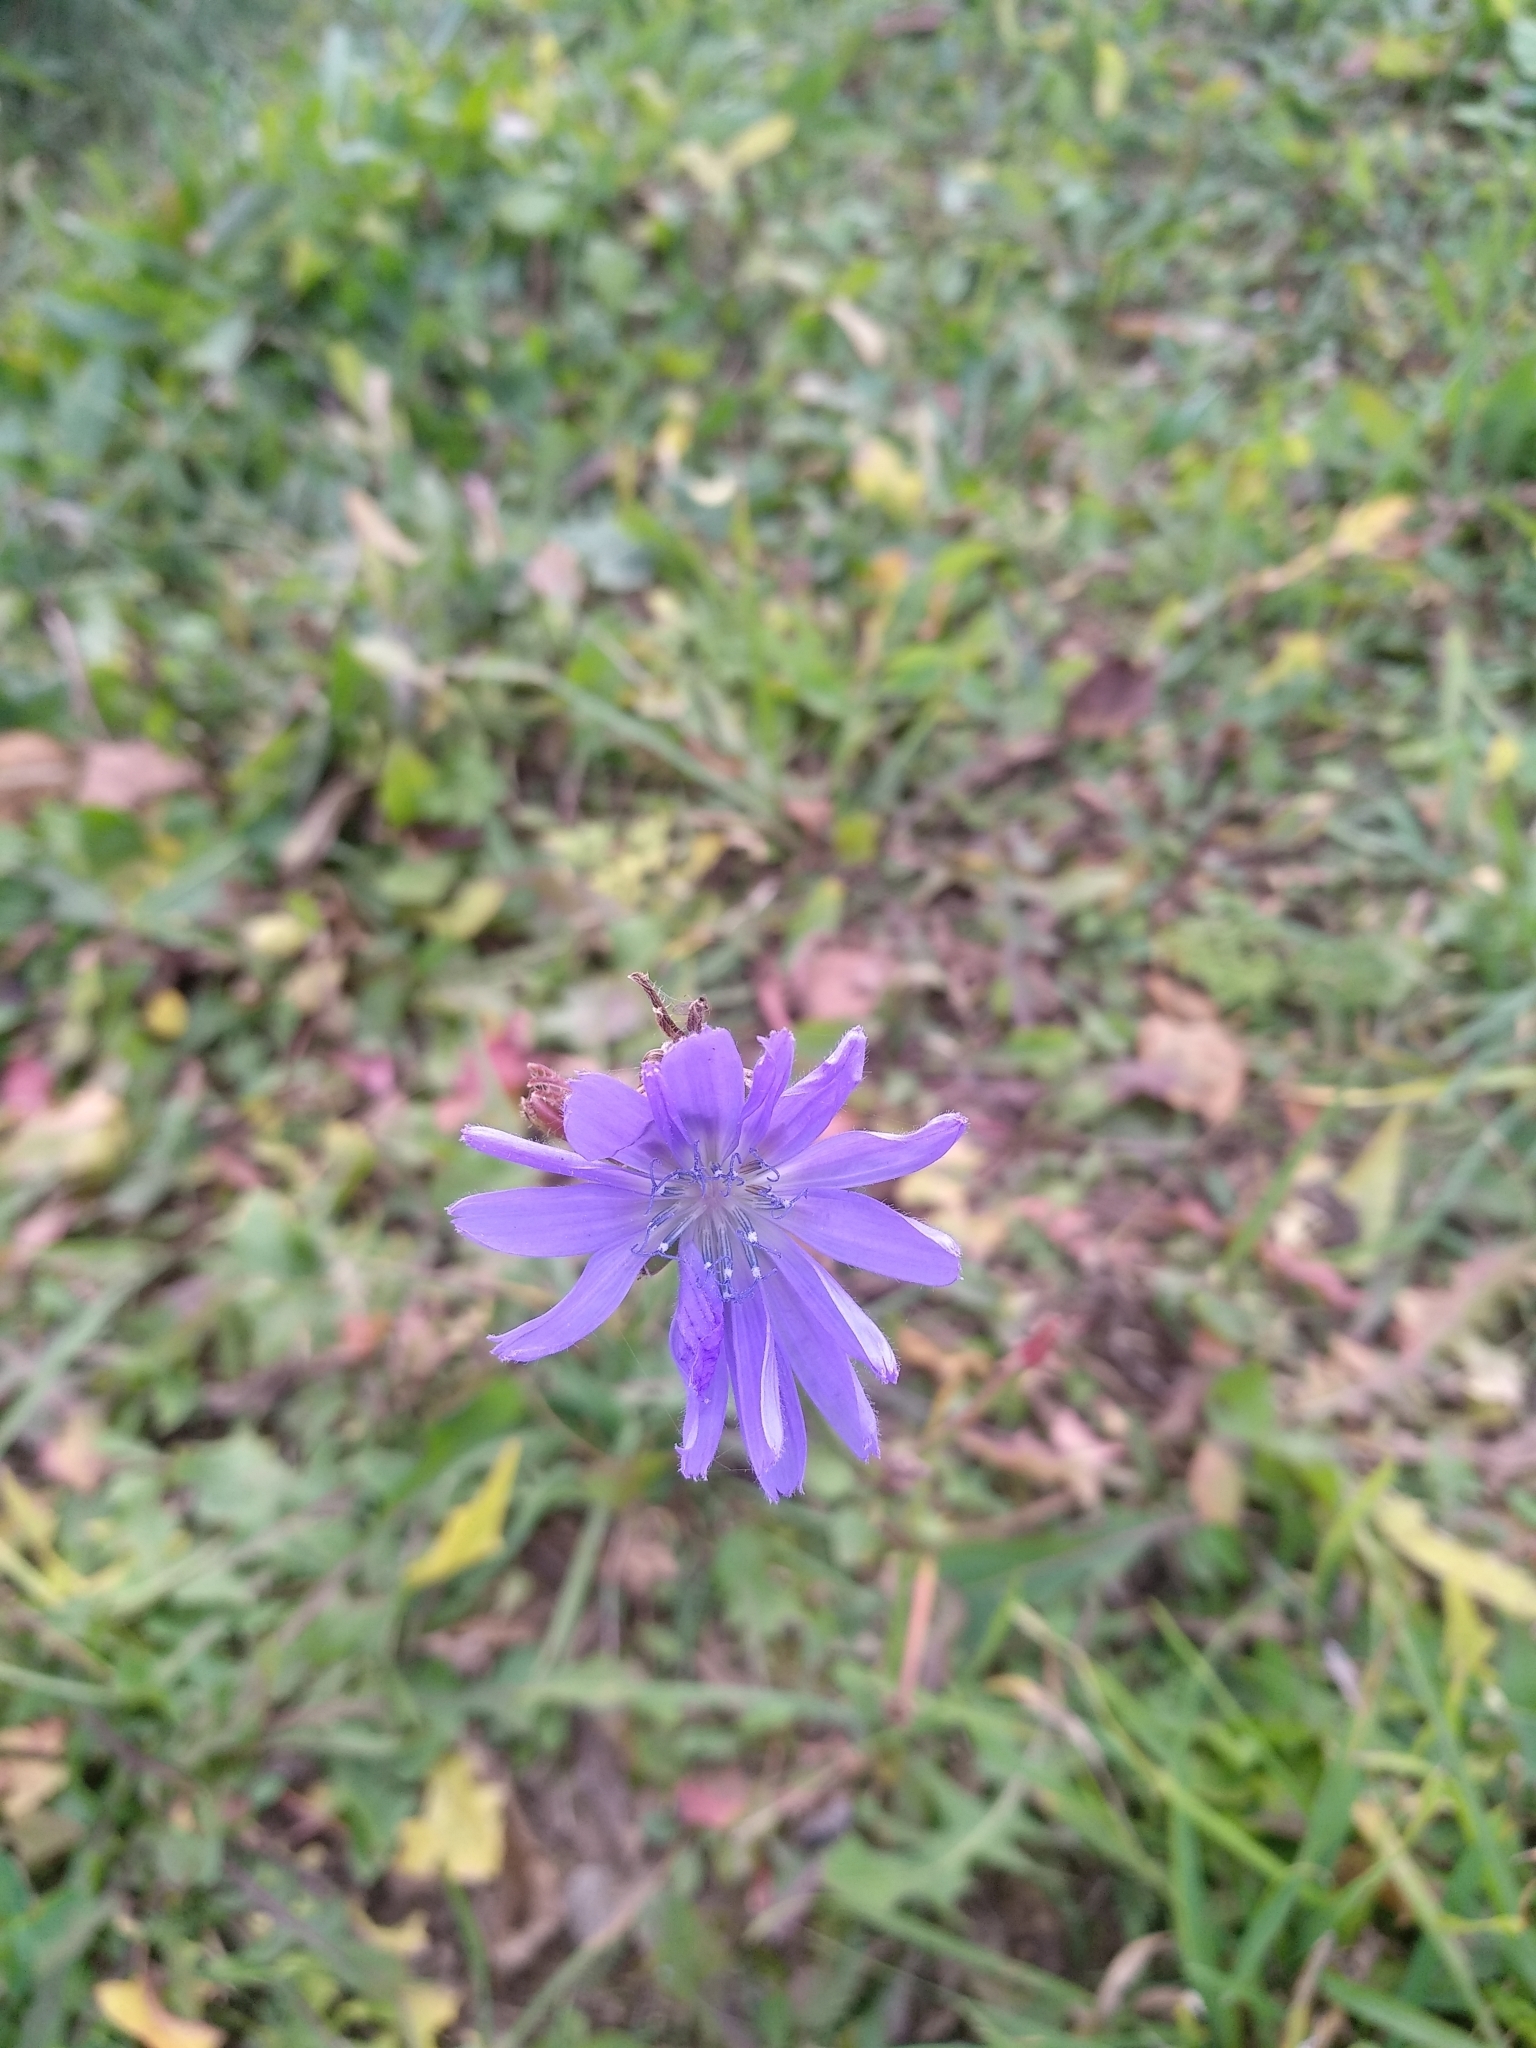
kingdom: Plantae
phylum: Tracheophyta
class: Magnoliopsida
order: Asterales
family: Asteraceae
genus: Cichorium
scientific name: Cichorium intybus
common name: Chicory
